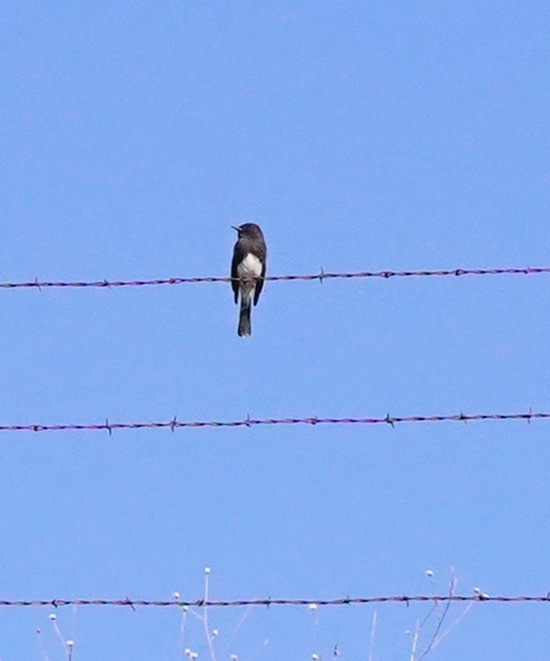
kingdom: Animalia
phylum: Chordata
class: Aves
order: Passeriformes
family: Tyrannidae
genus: Sayornis
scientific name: Sayornis nigricans
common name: Black phoebe
